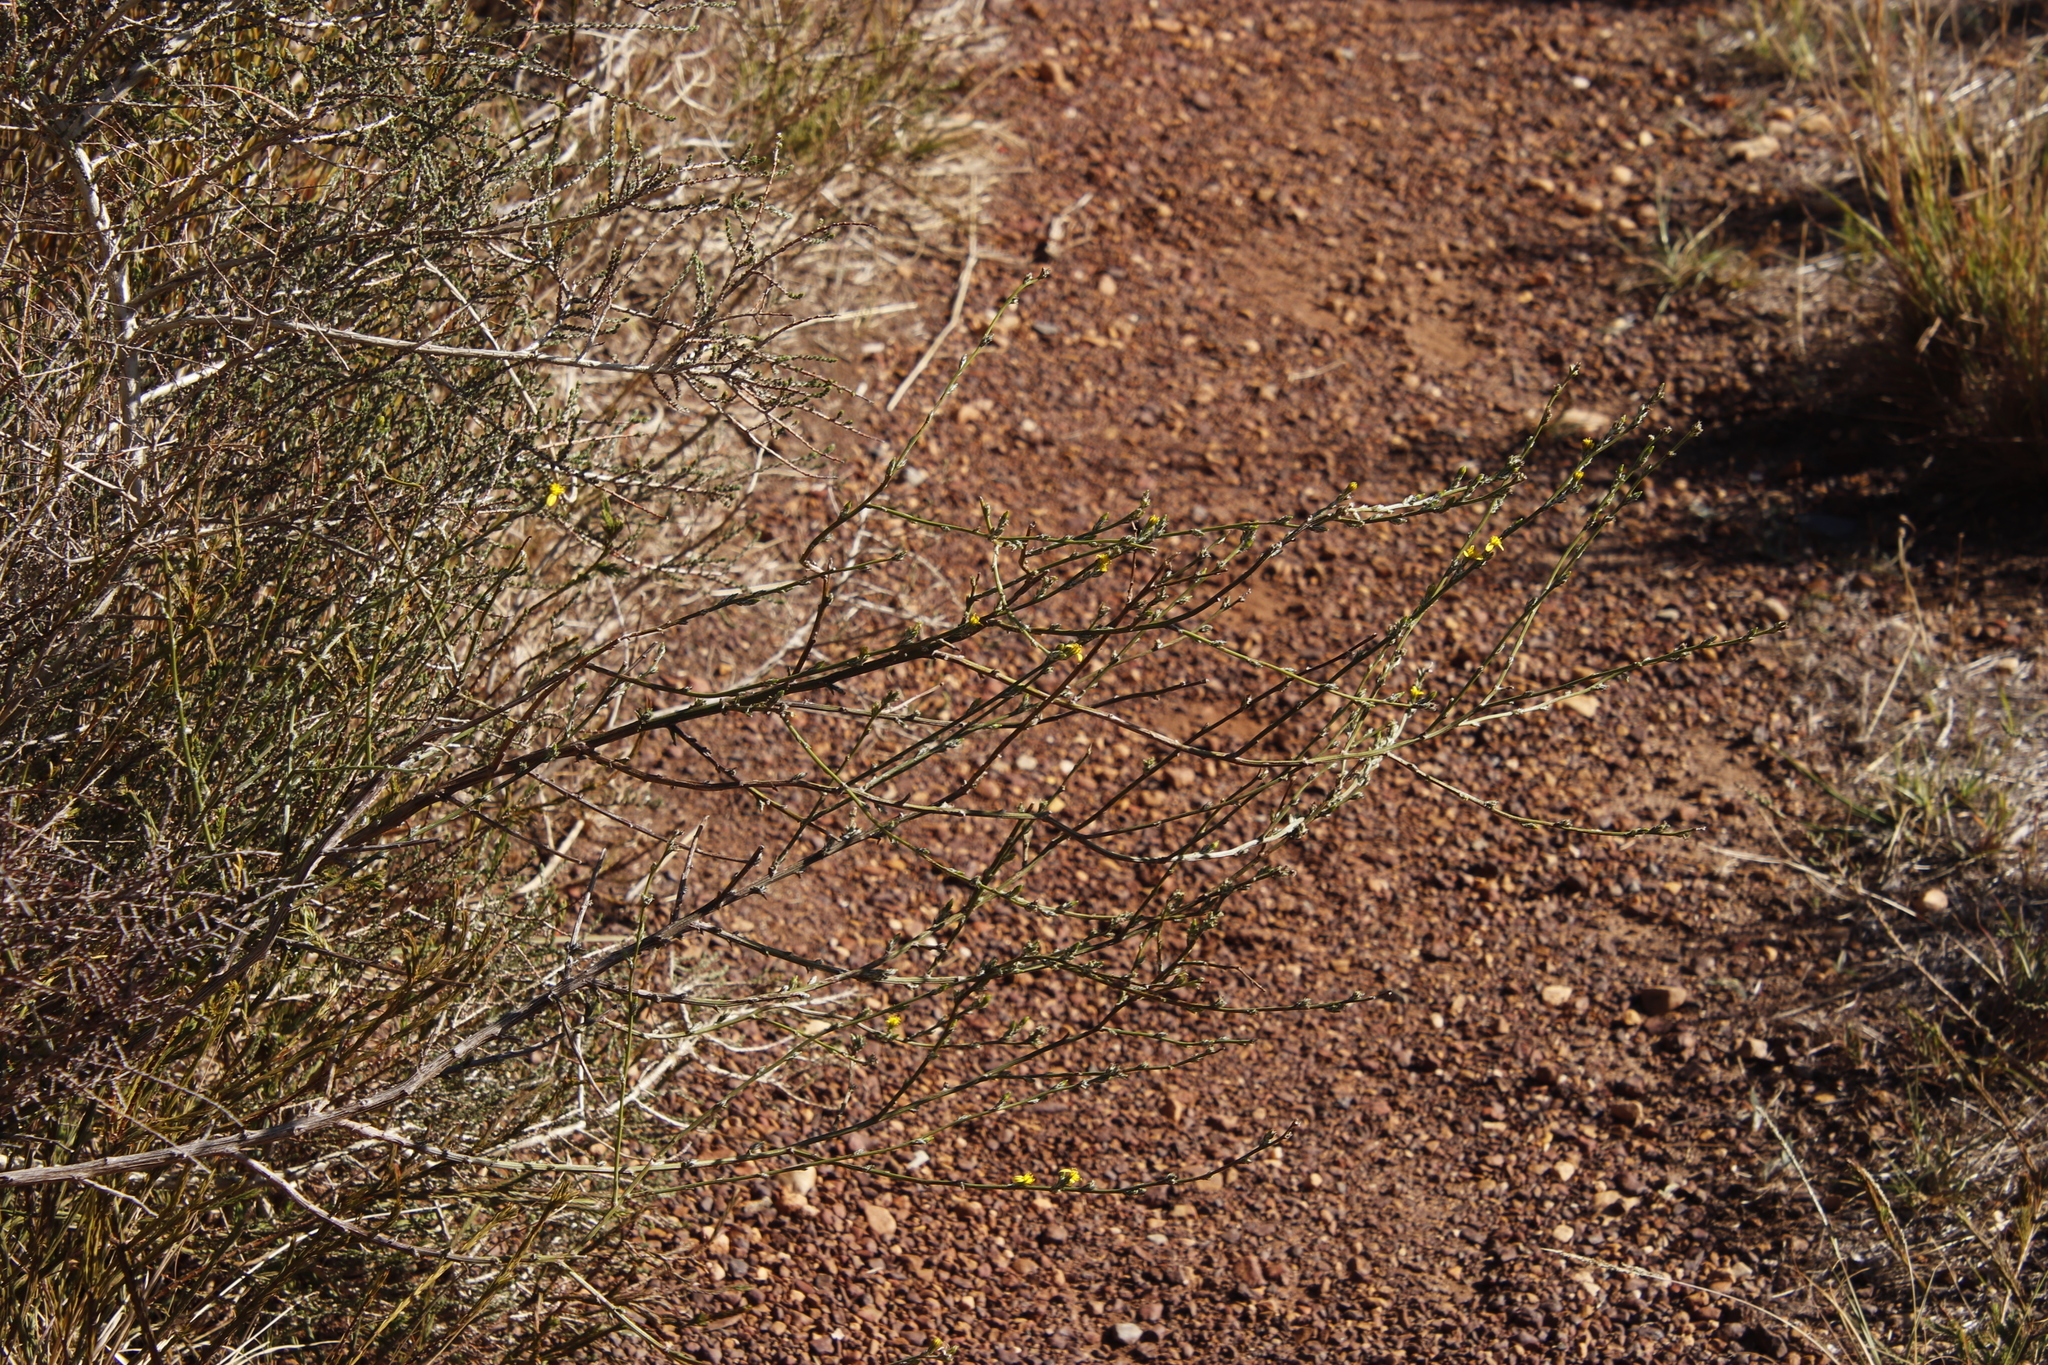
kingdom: Plantae
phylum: Tracheophyta
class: Magnoliopsida
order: Asterales
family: Asteraceae
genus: Senecio
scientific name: Senecio pubigerus
